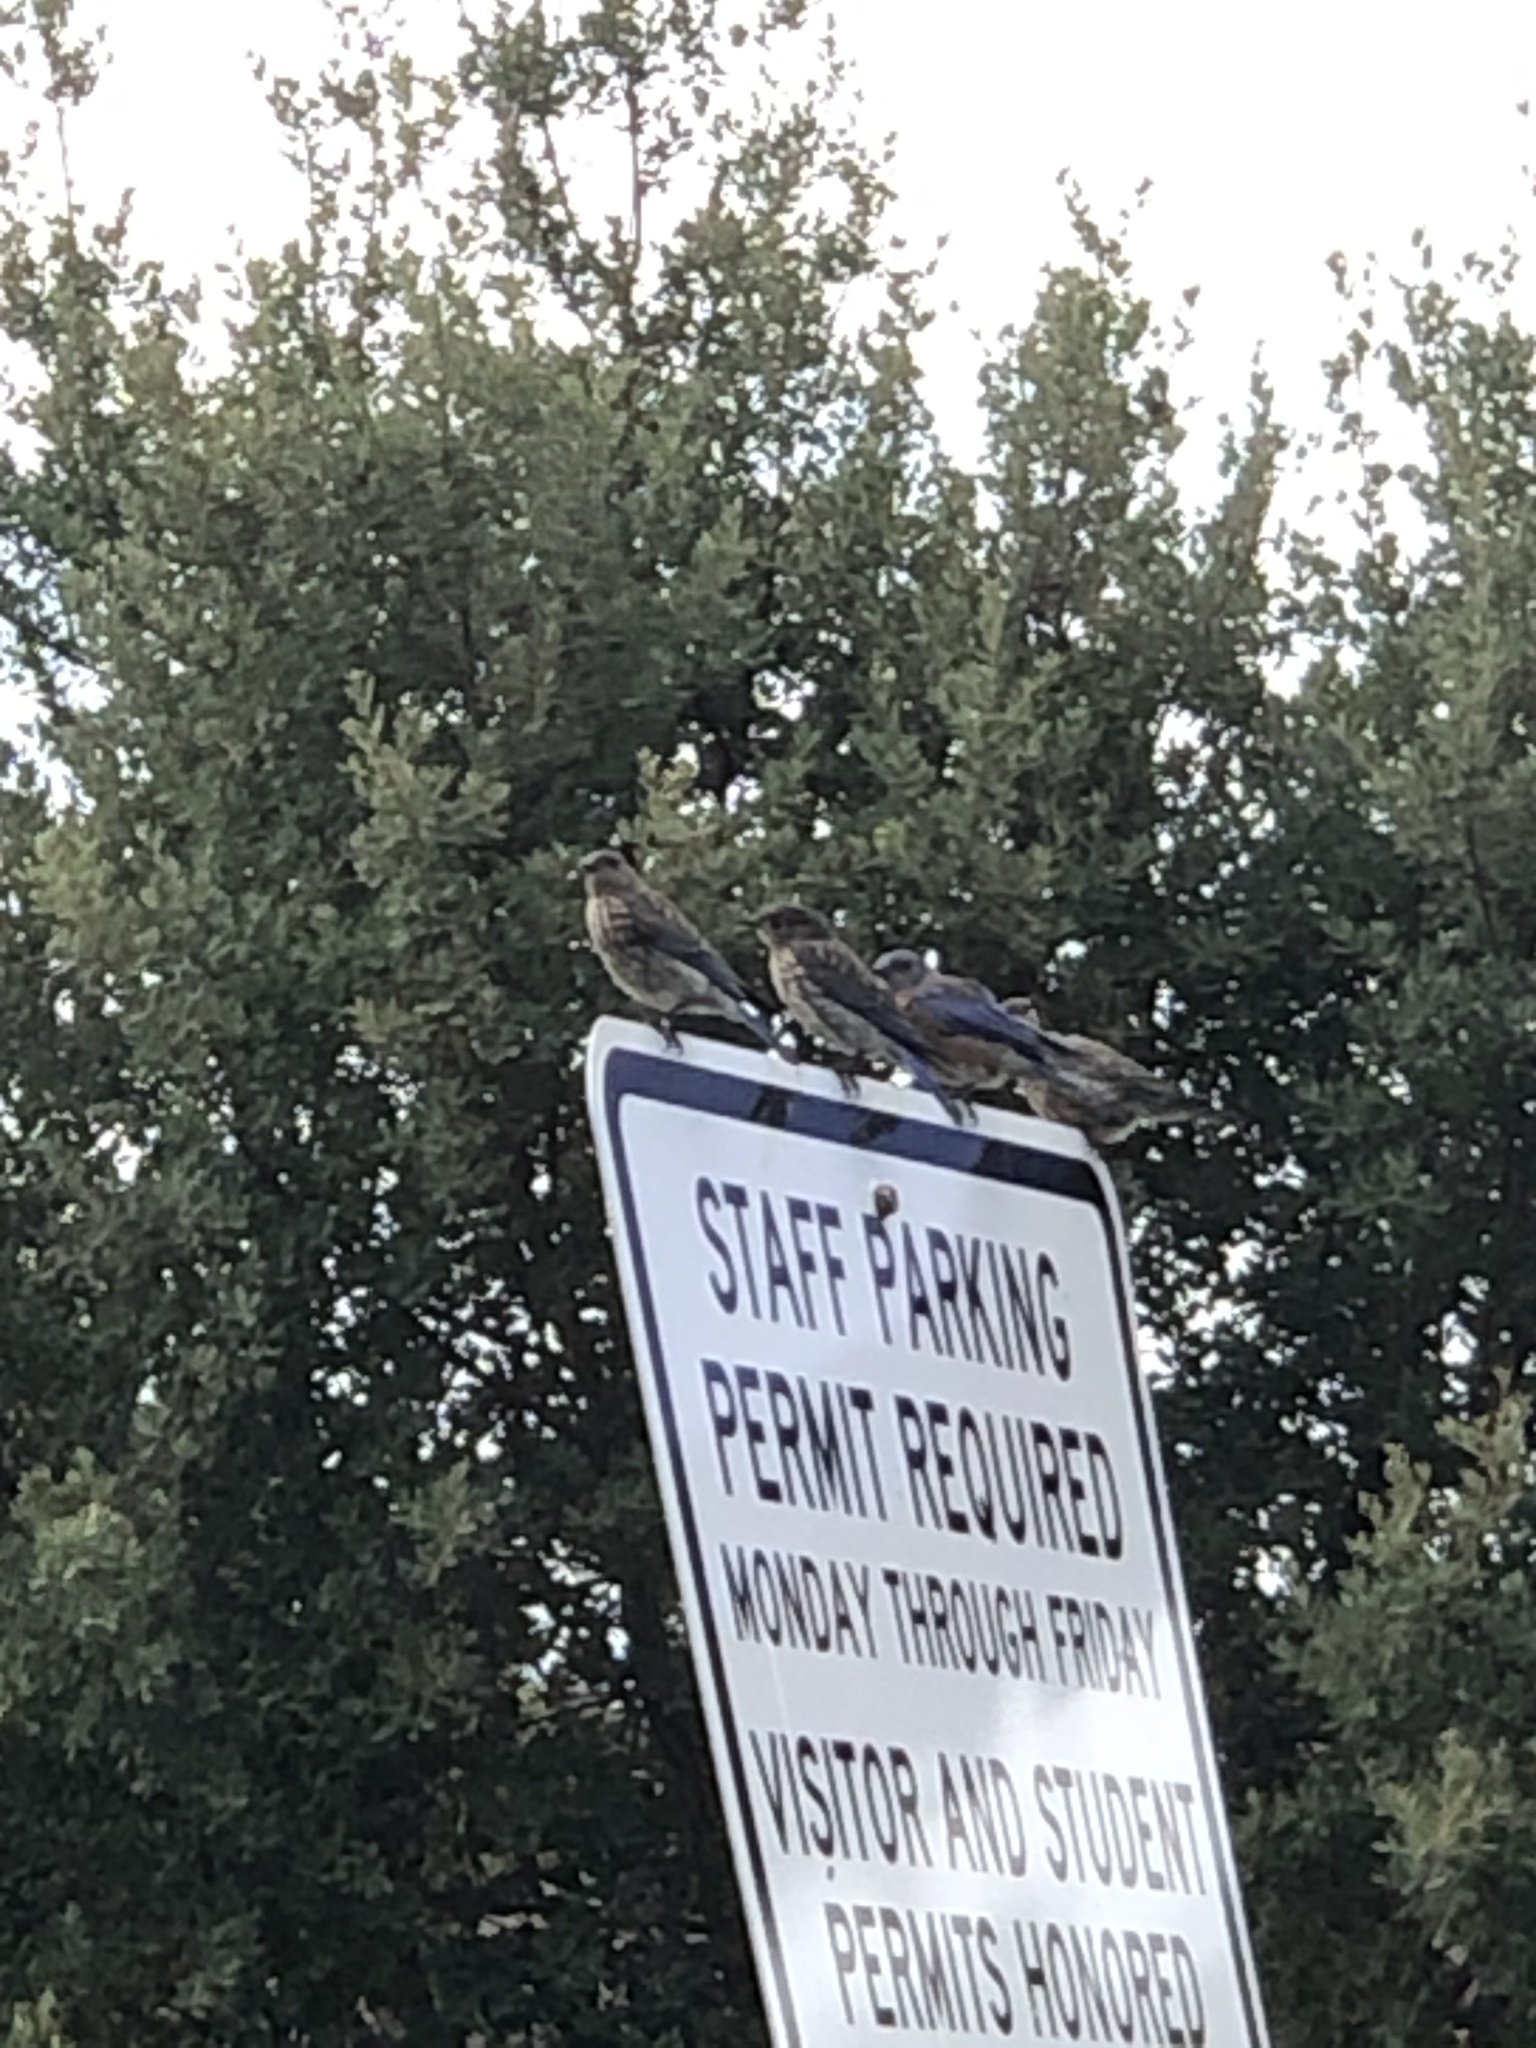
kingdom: Animalia
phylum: Chordata
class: Aves
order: Passeriformes
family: Turdidae
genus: Sialia
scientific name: Sialia mexicana
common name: Western bluebird
